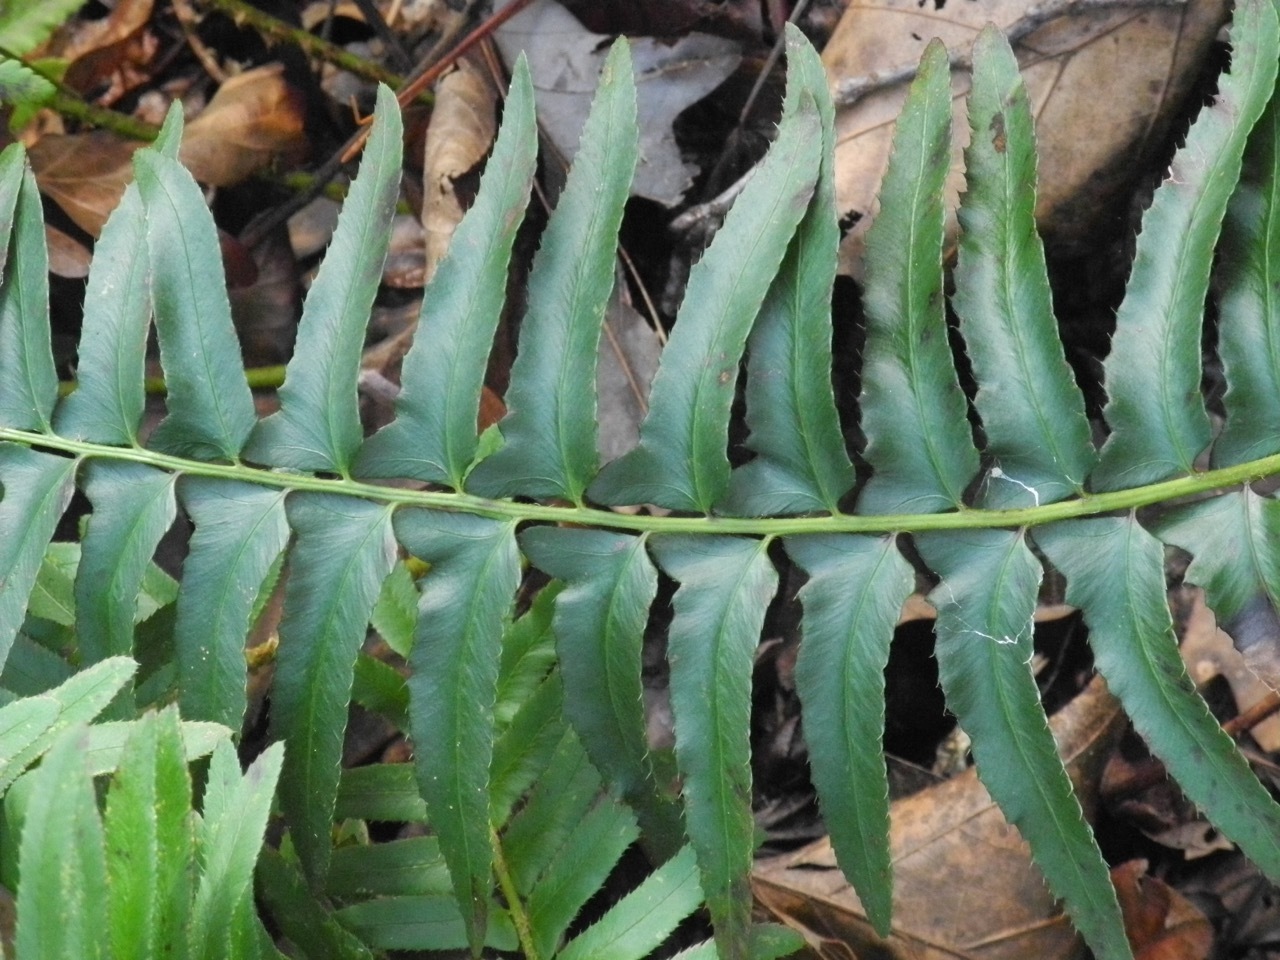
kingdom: Plantae
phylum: Tracheophyta
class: Polypodiopsida
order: Polypodiales
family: Dryopteridaceae
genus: Polystichum
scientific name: Polystichum acrostichoides
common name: Christmas fern
